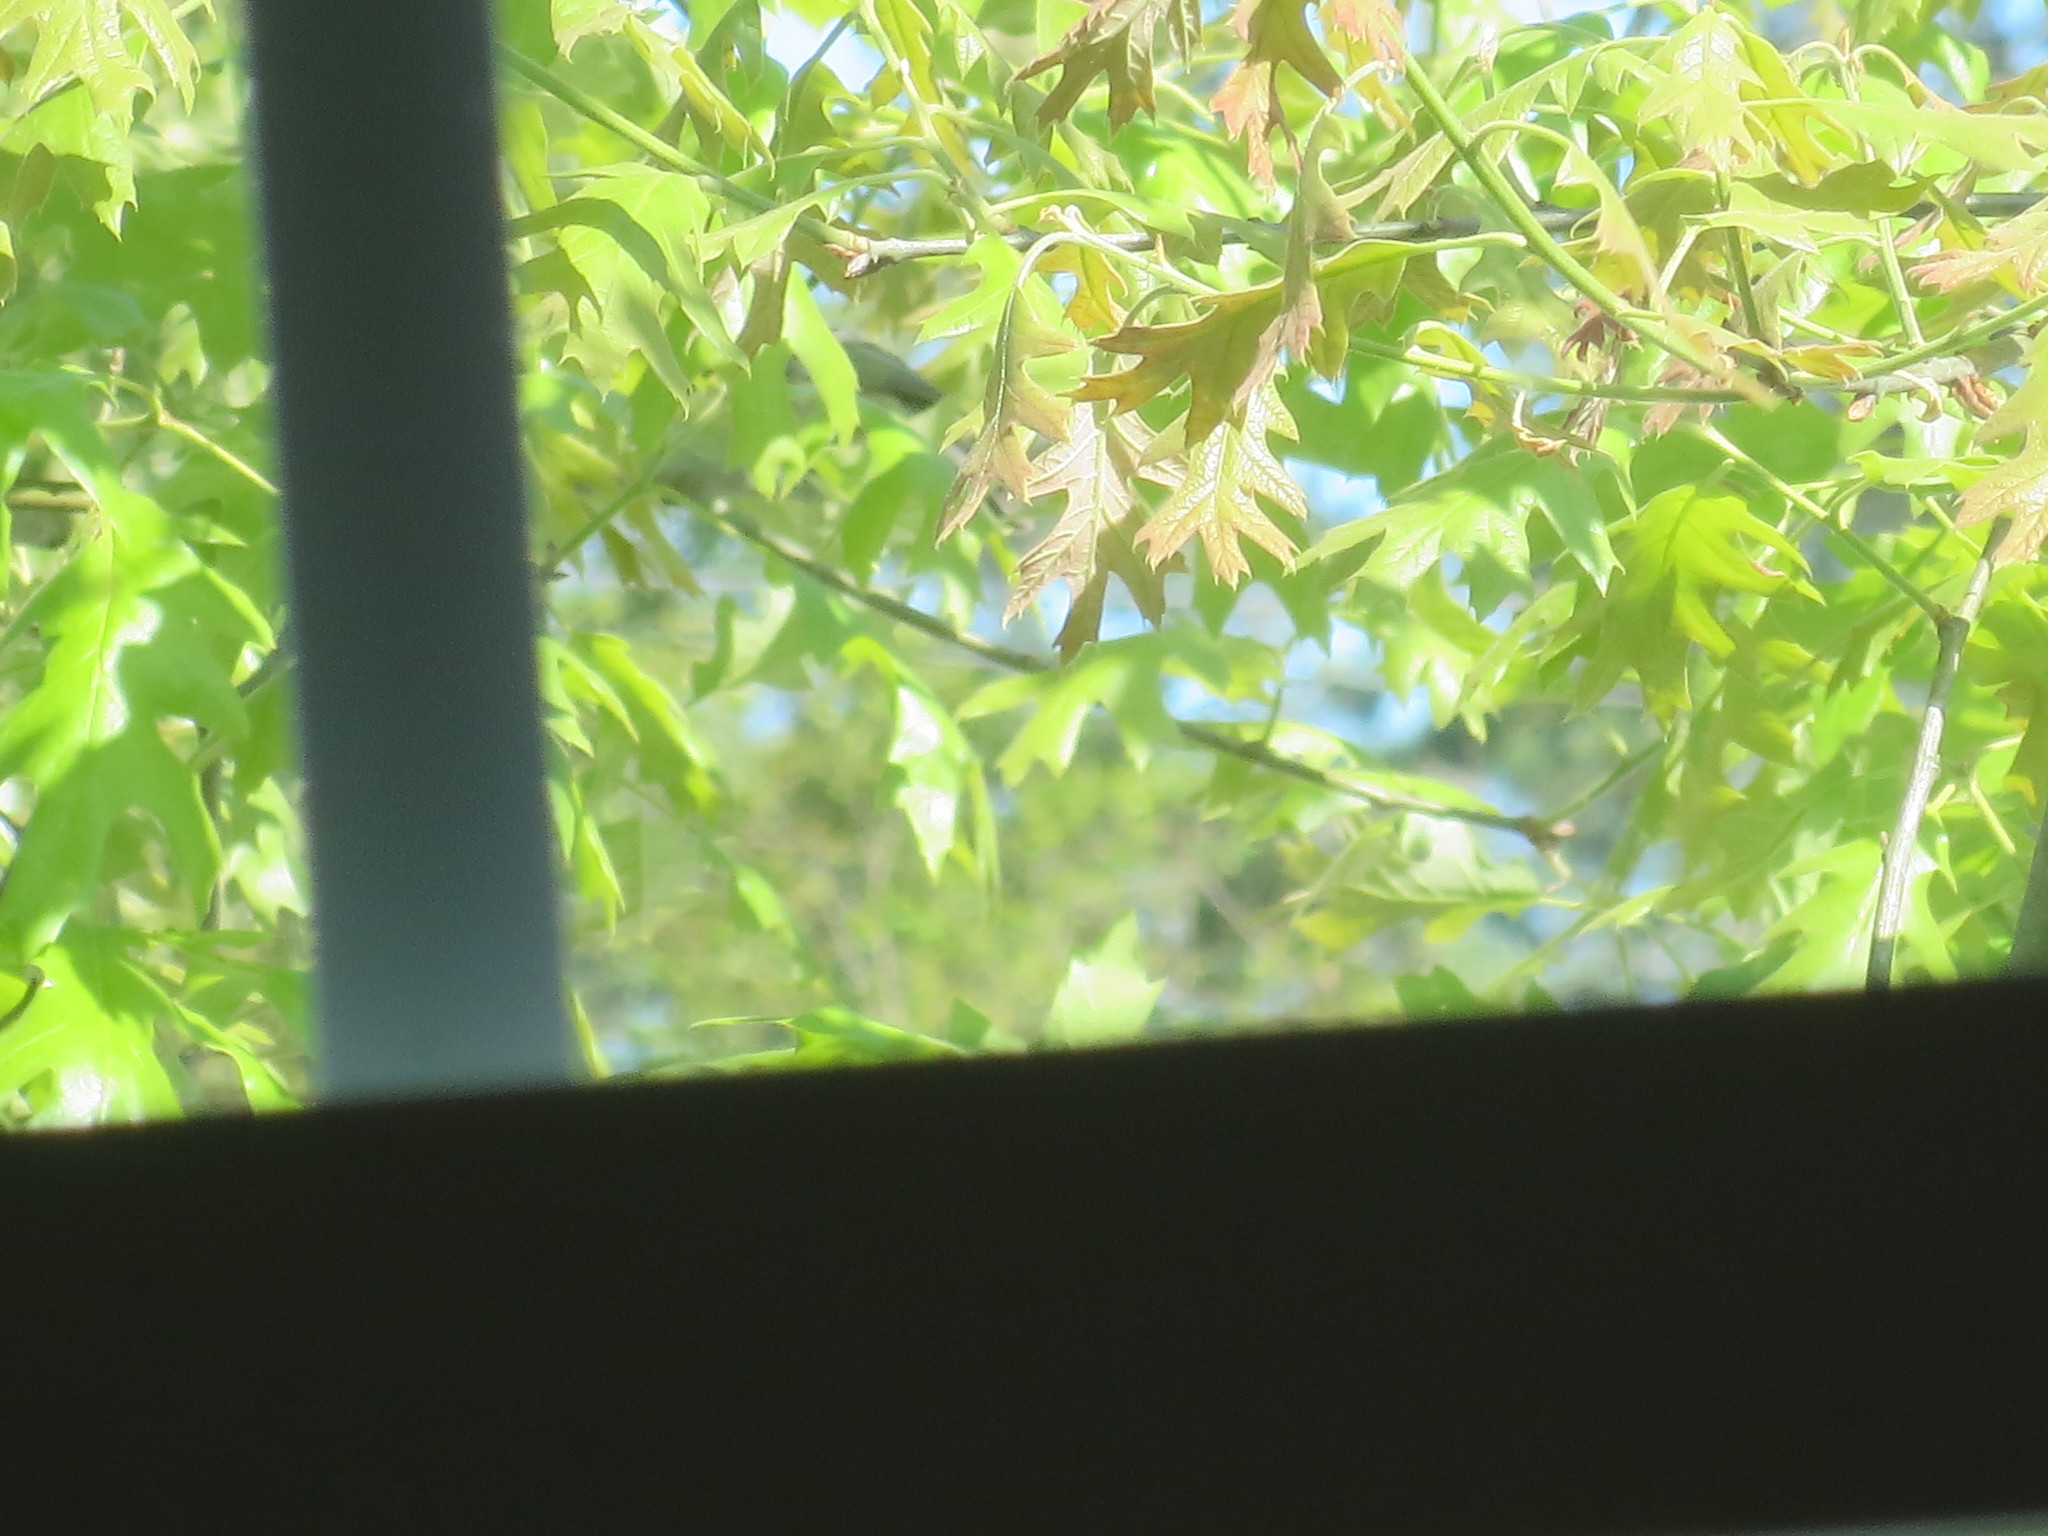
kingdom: Animalia
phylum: Chordata
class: Aves
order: Passeriformes
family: Paridae
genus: Baeolophus
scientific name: Baeolophus bicolor
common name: Tufted titmouse
